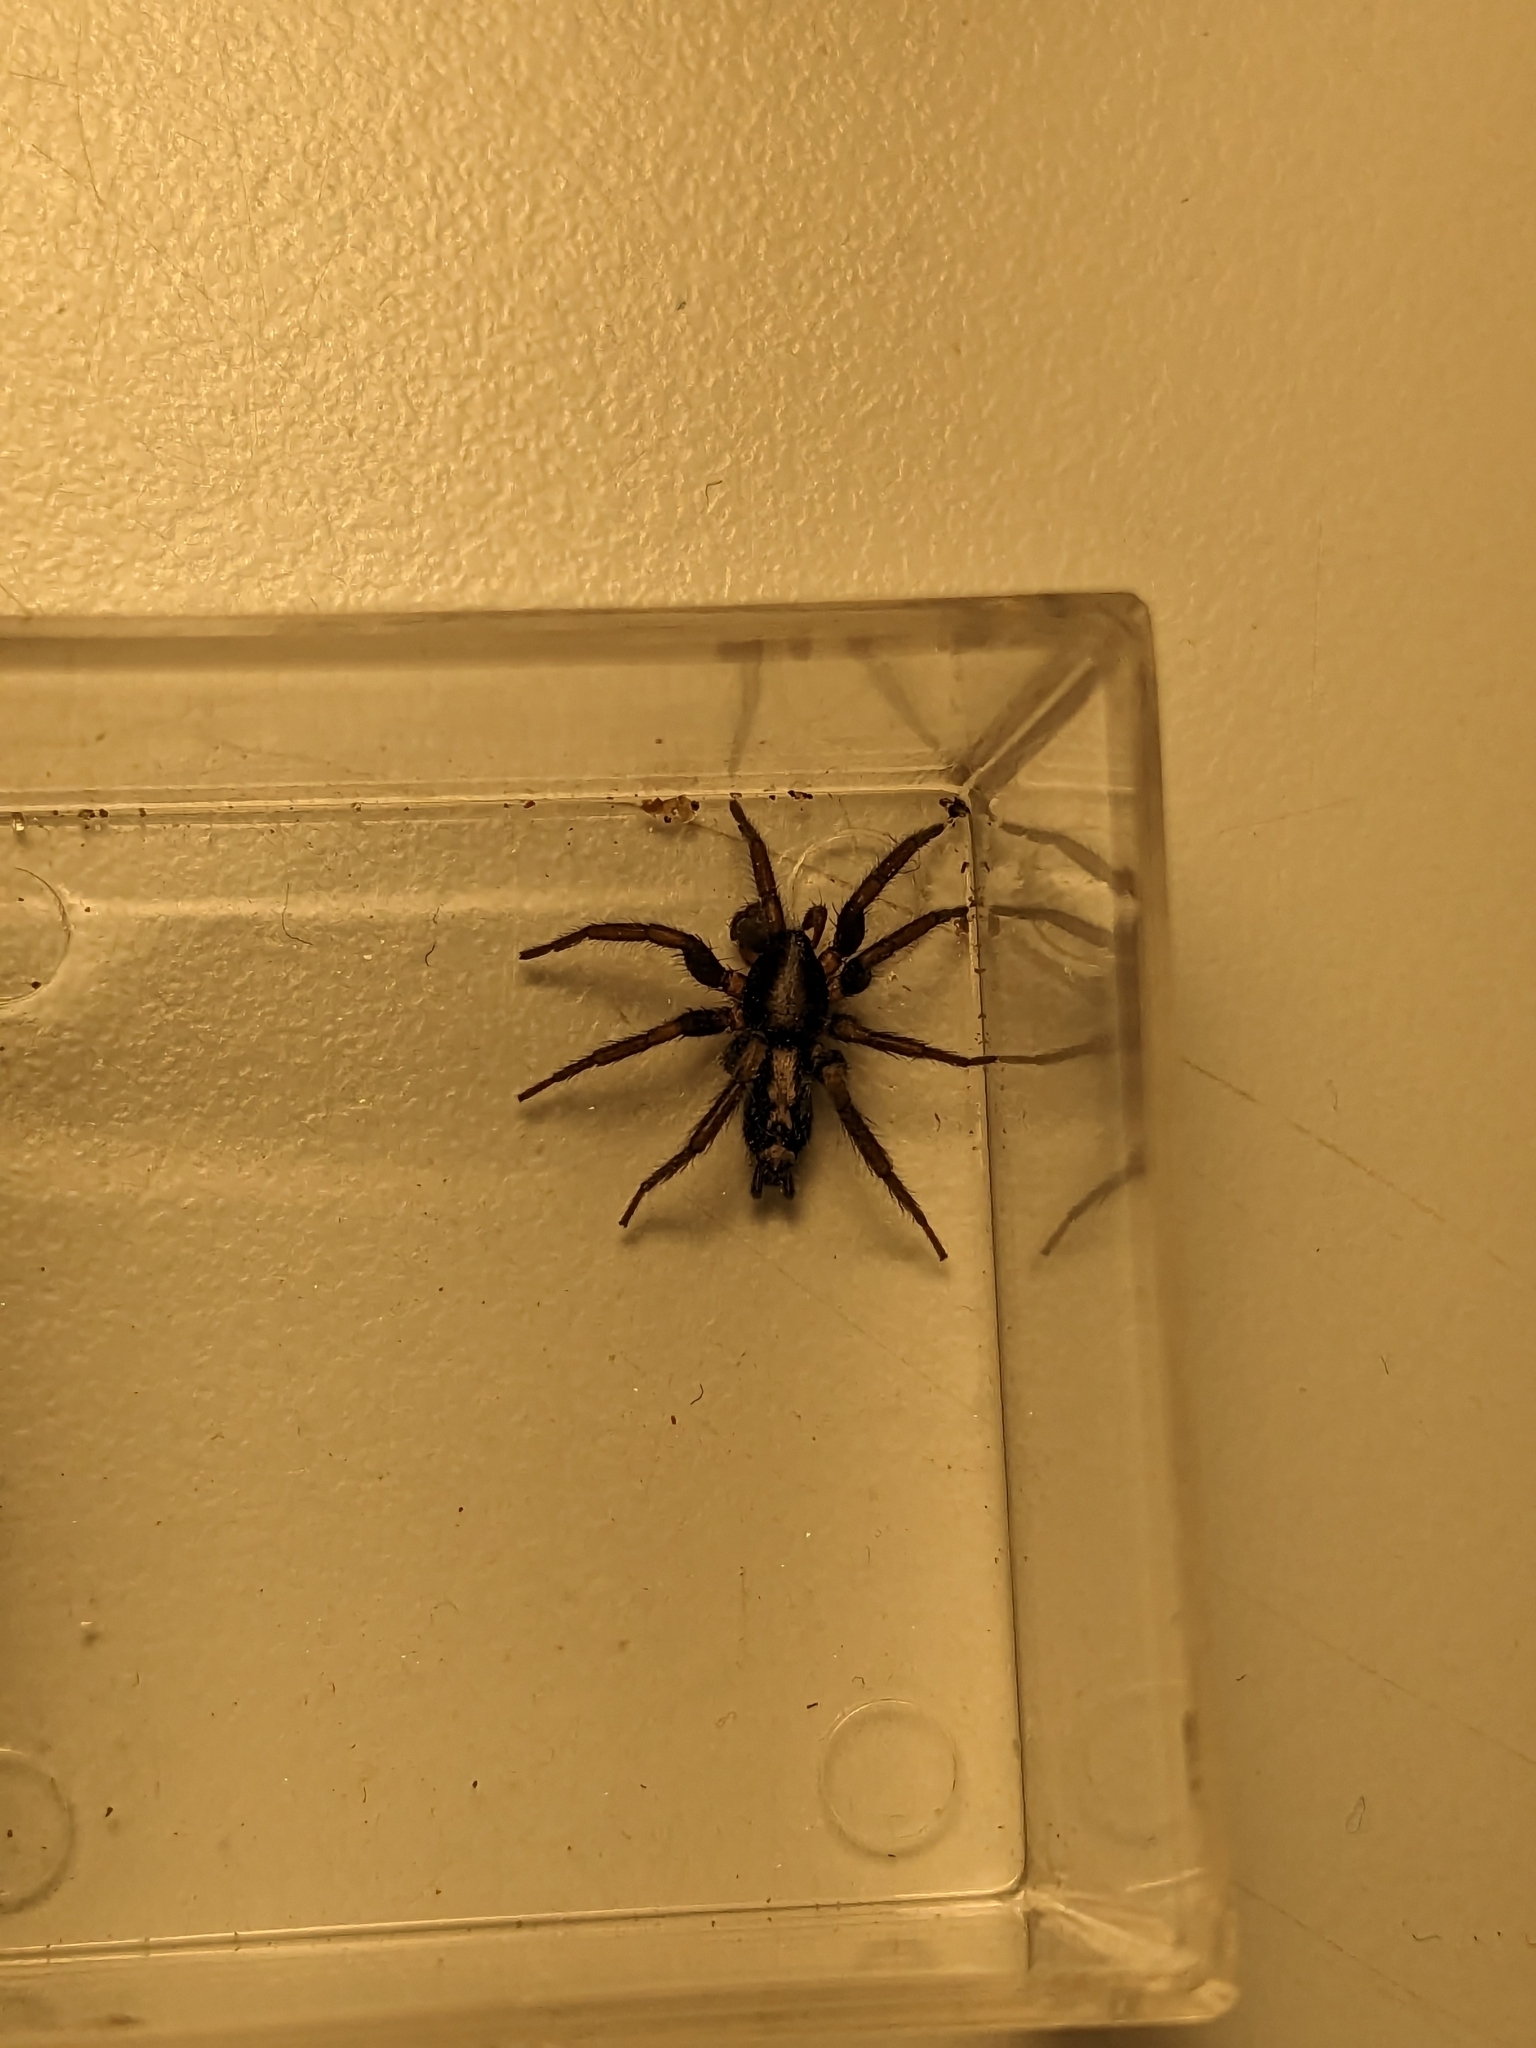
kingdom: Animalia
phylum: Arthropoda
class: Arachnida
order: Araneae
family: Gnaphosidae
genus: Herpyllus
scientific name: Herpyllus ecclesiasticus
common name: Eastern parson spider
